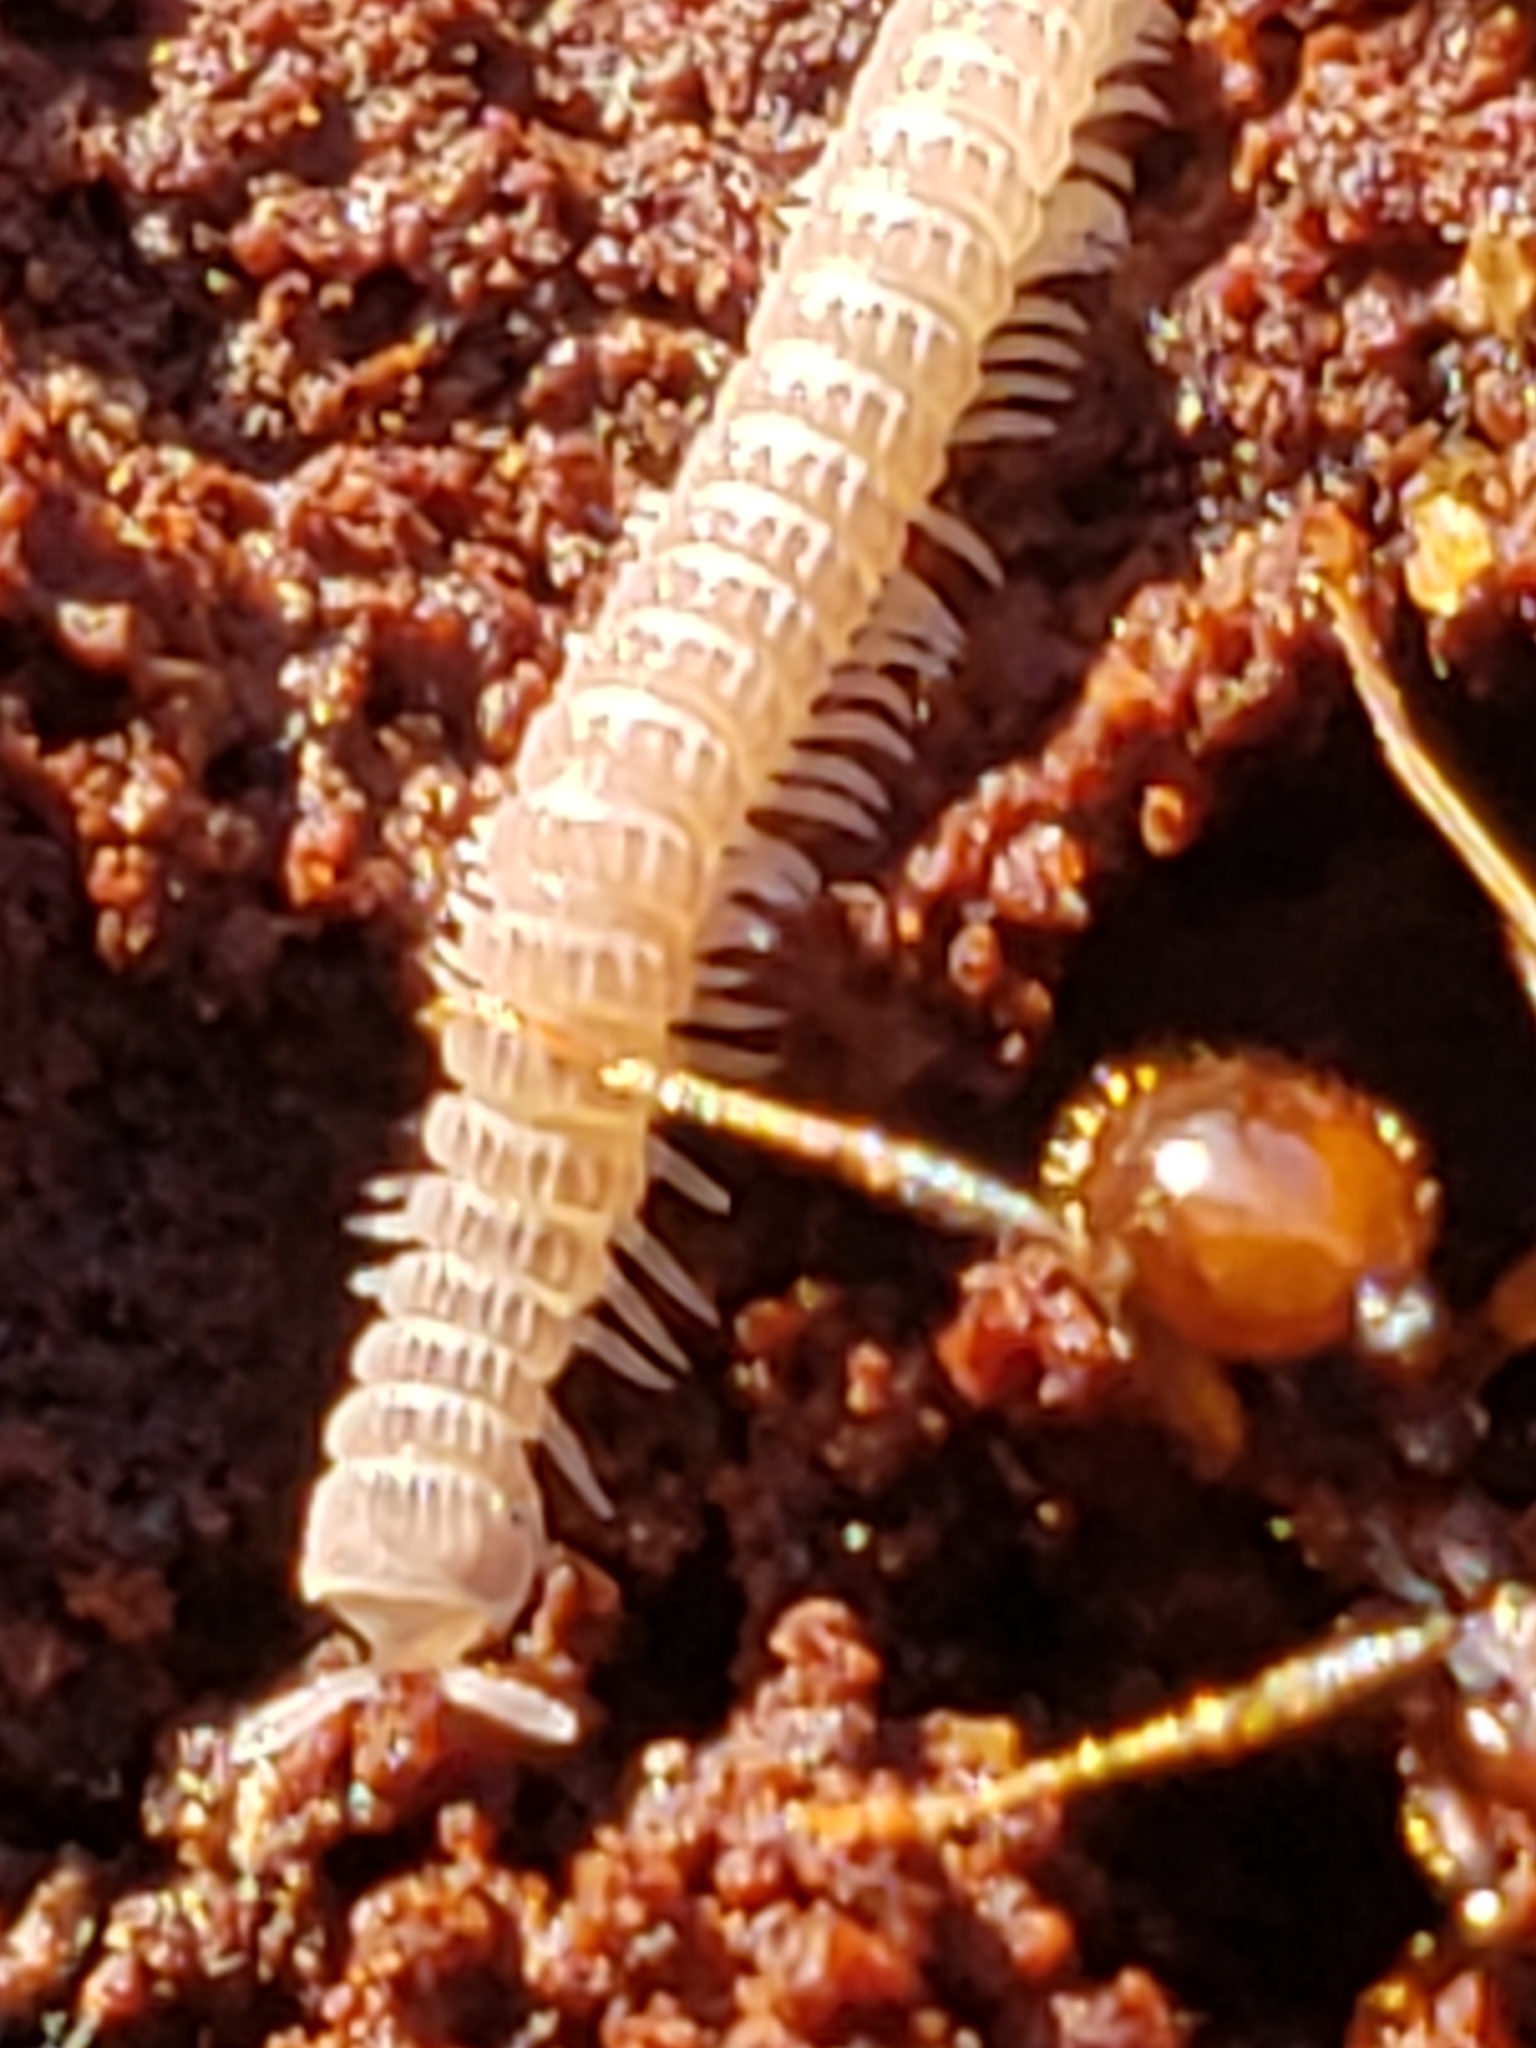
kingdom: Animalia
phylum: Arthropoda
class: Diplopoda
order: Chordeumatida
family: Striariidae
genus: Striaria
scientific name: Striaria columbiana
